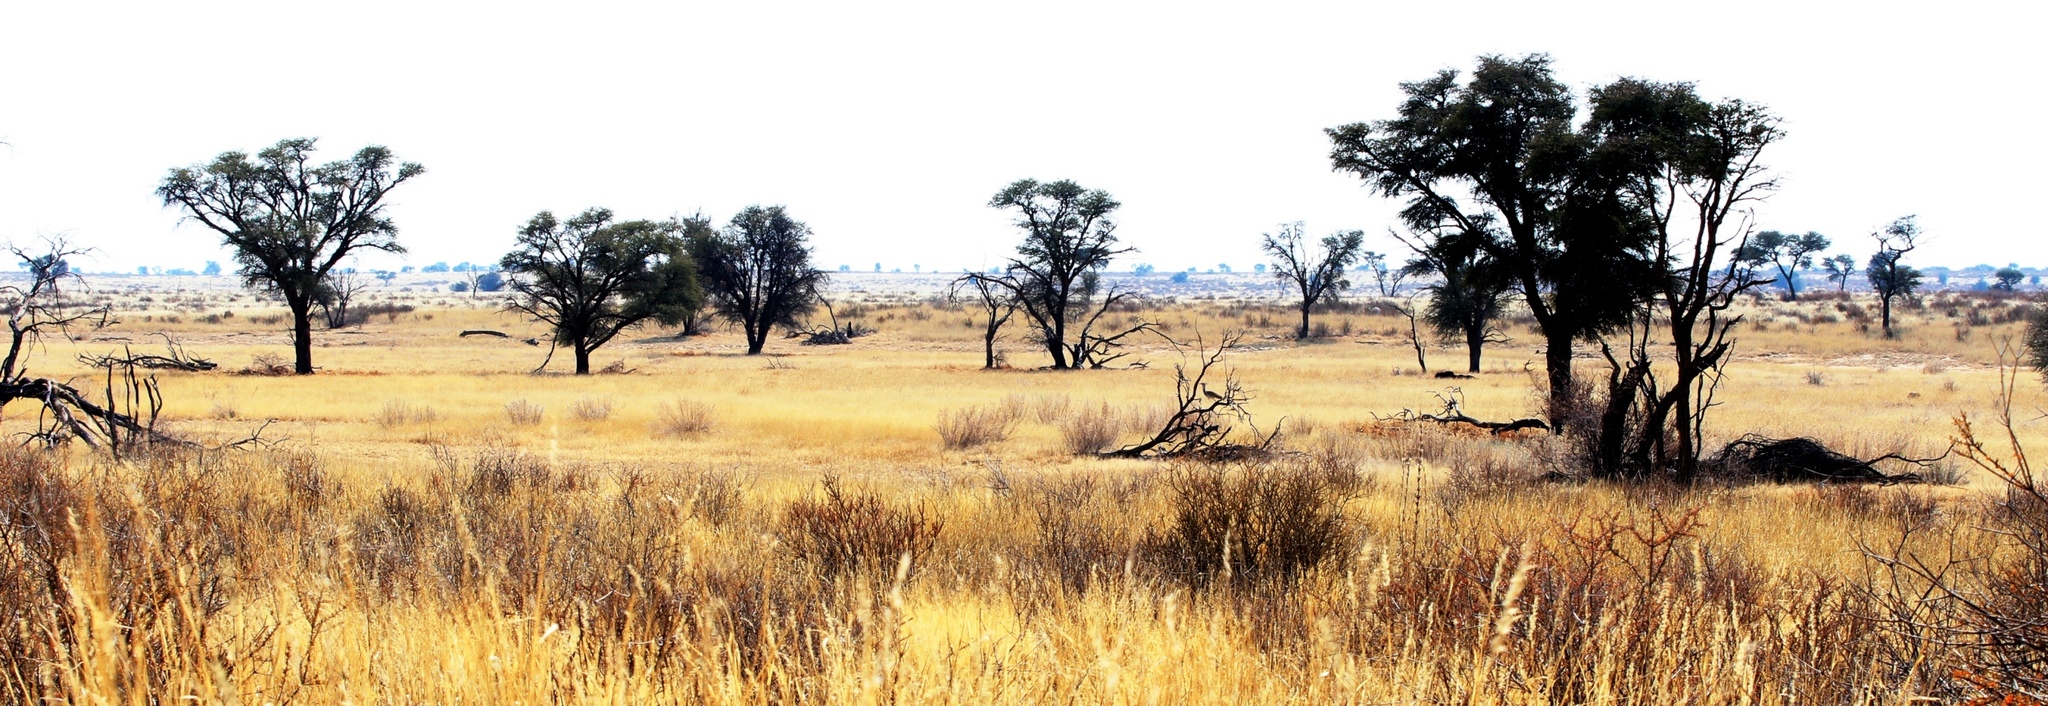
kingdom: Plantae
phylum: Tracheophyta
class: Magnoliopsida
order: Fabales
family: Fabaceae
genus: Vachellia
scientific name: Vachellia erioloba
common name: Camel thorn
